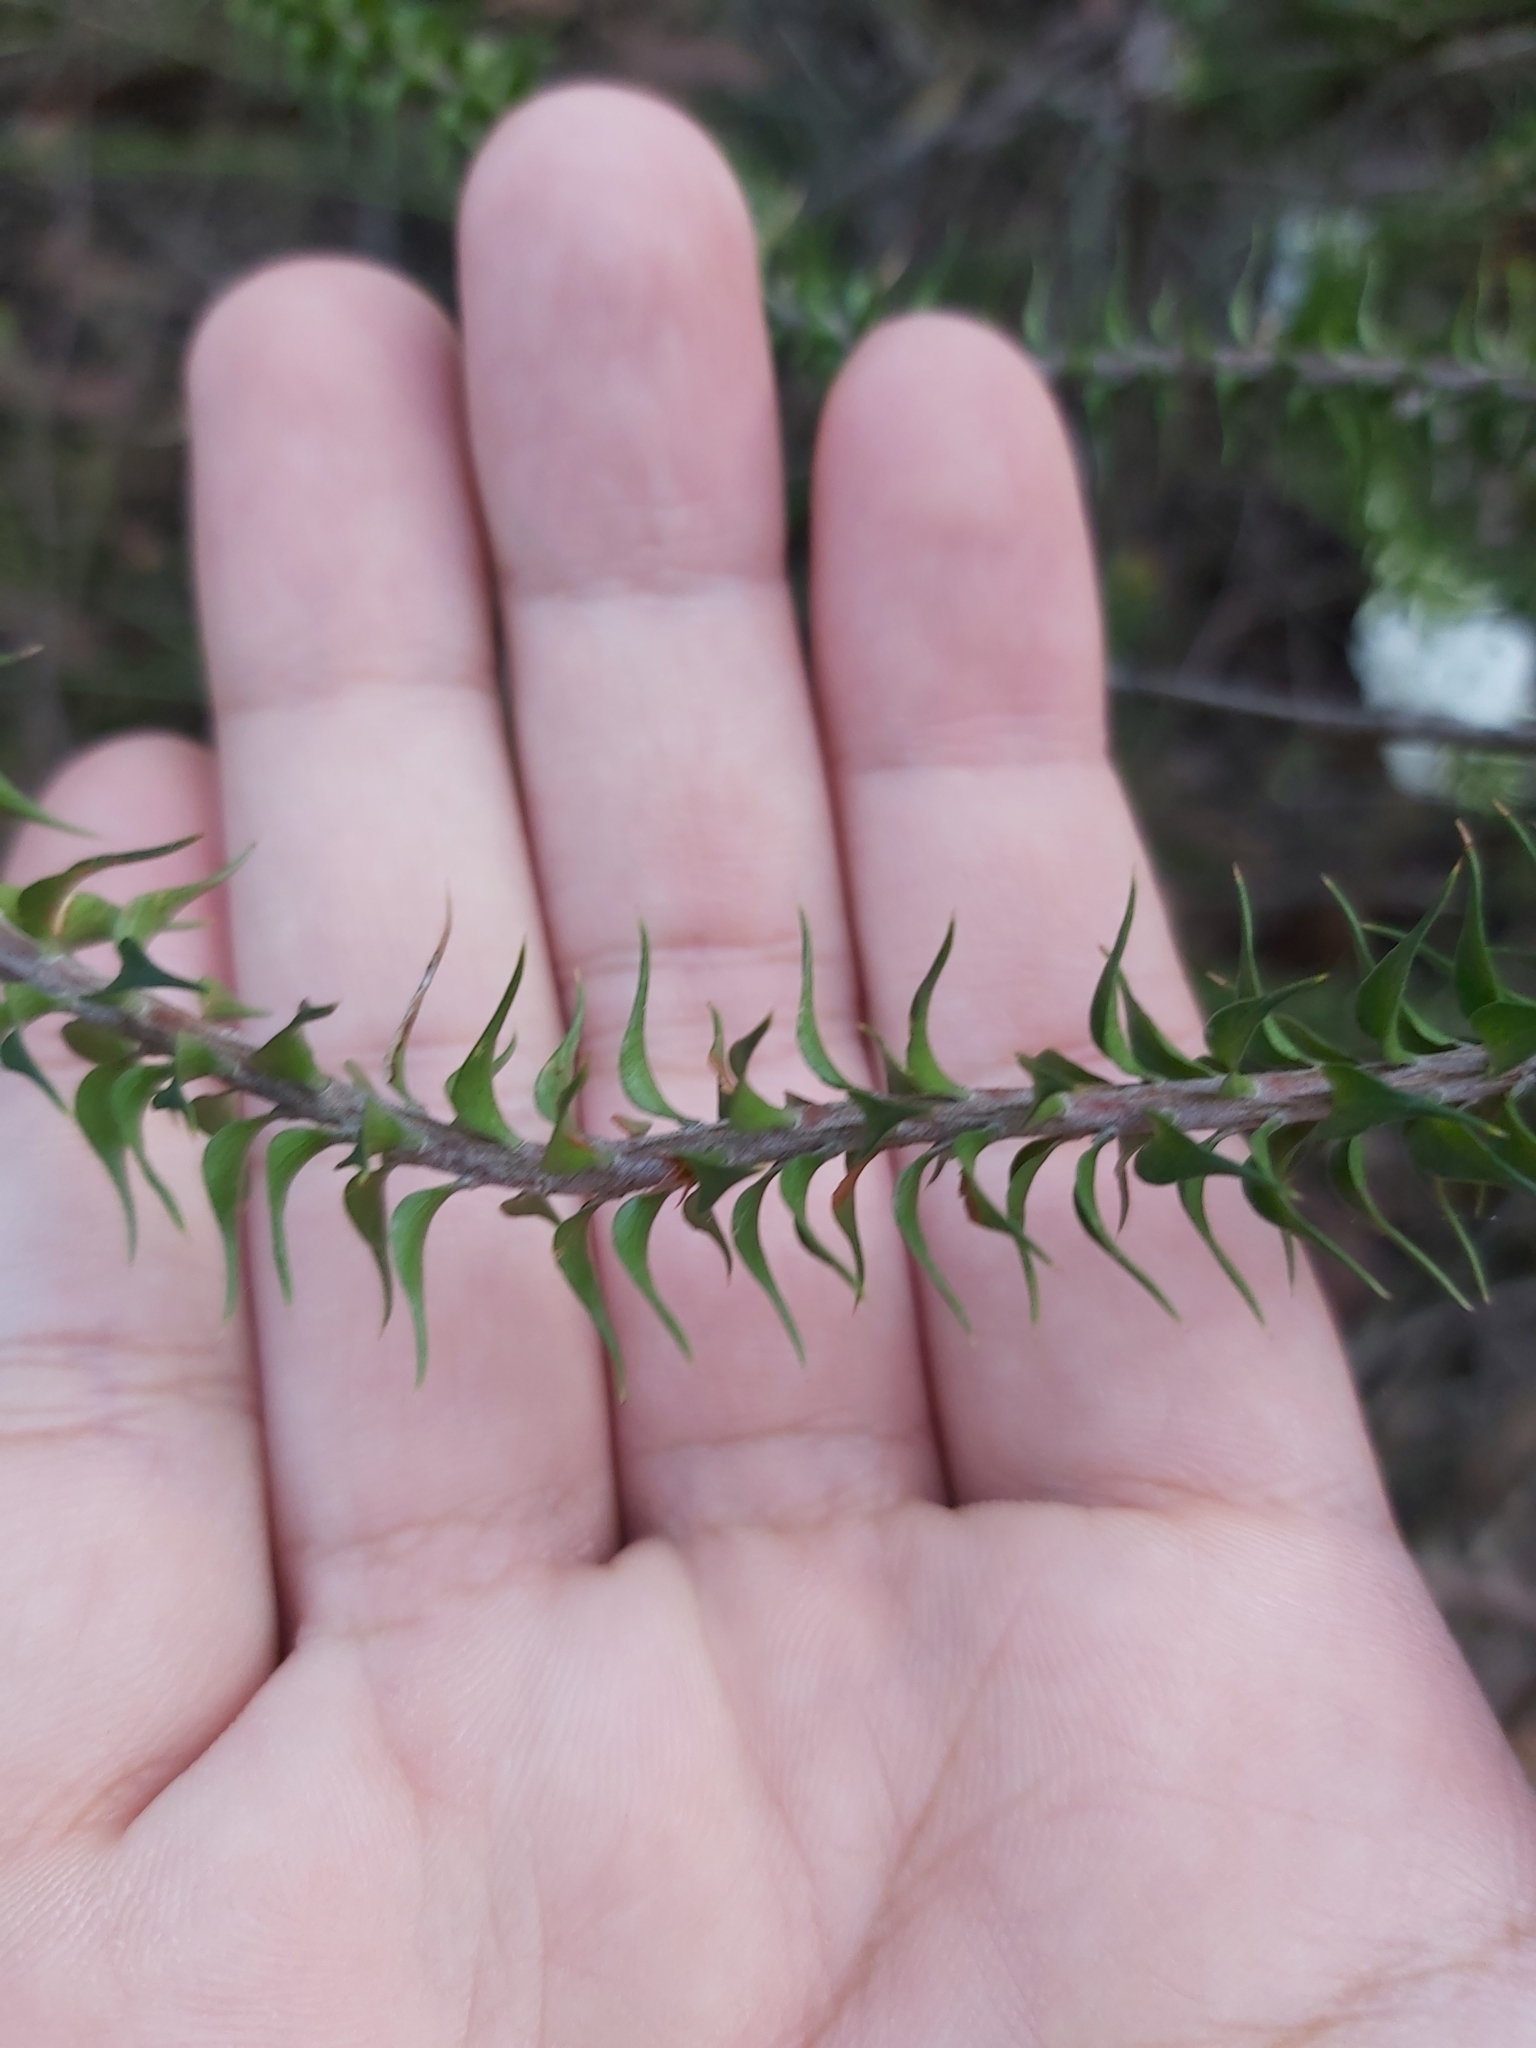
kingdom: Plantae
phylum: Tracheophyta
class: Magnoliopsida
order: Ericales
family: Ericaceae
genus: Woollsia
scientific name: Woollsia pungens
